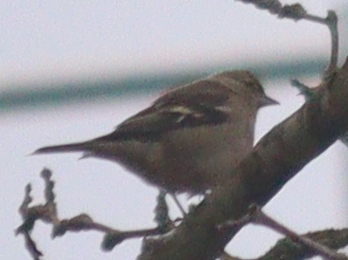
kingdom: Animalia
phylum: Chordata
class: Aves
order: Passeriformes
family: Fringillidae
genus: Fringilla
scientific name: Fringilla coelebs
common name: Common chaffinch
